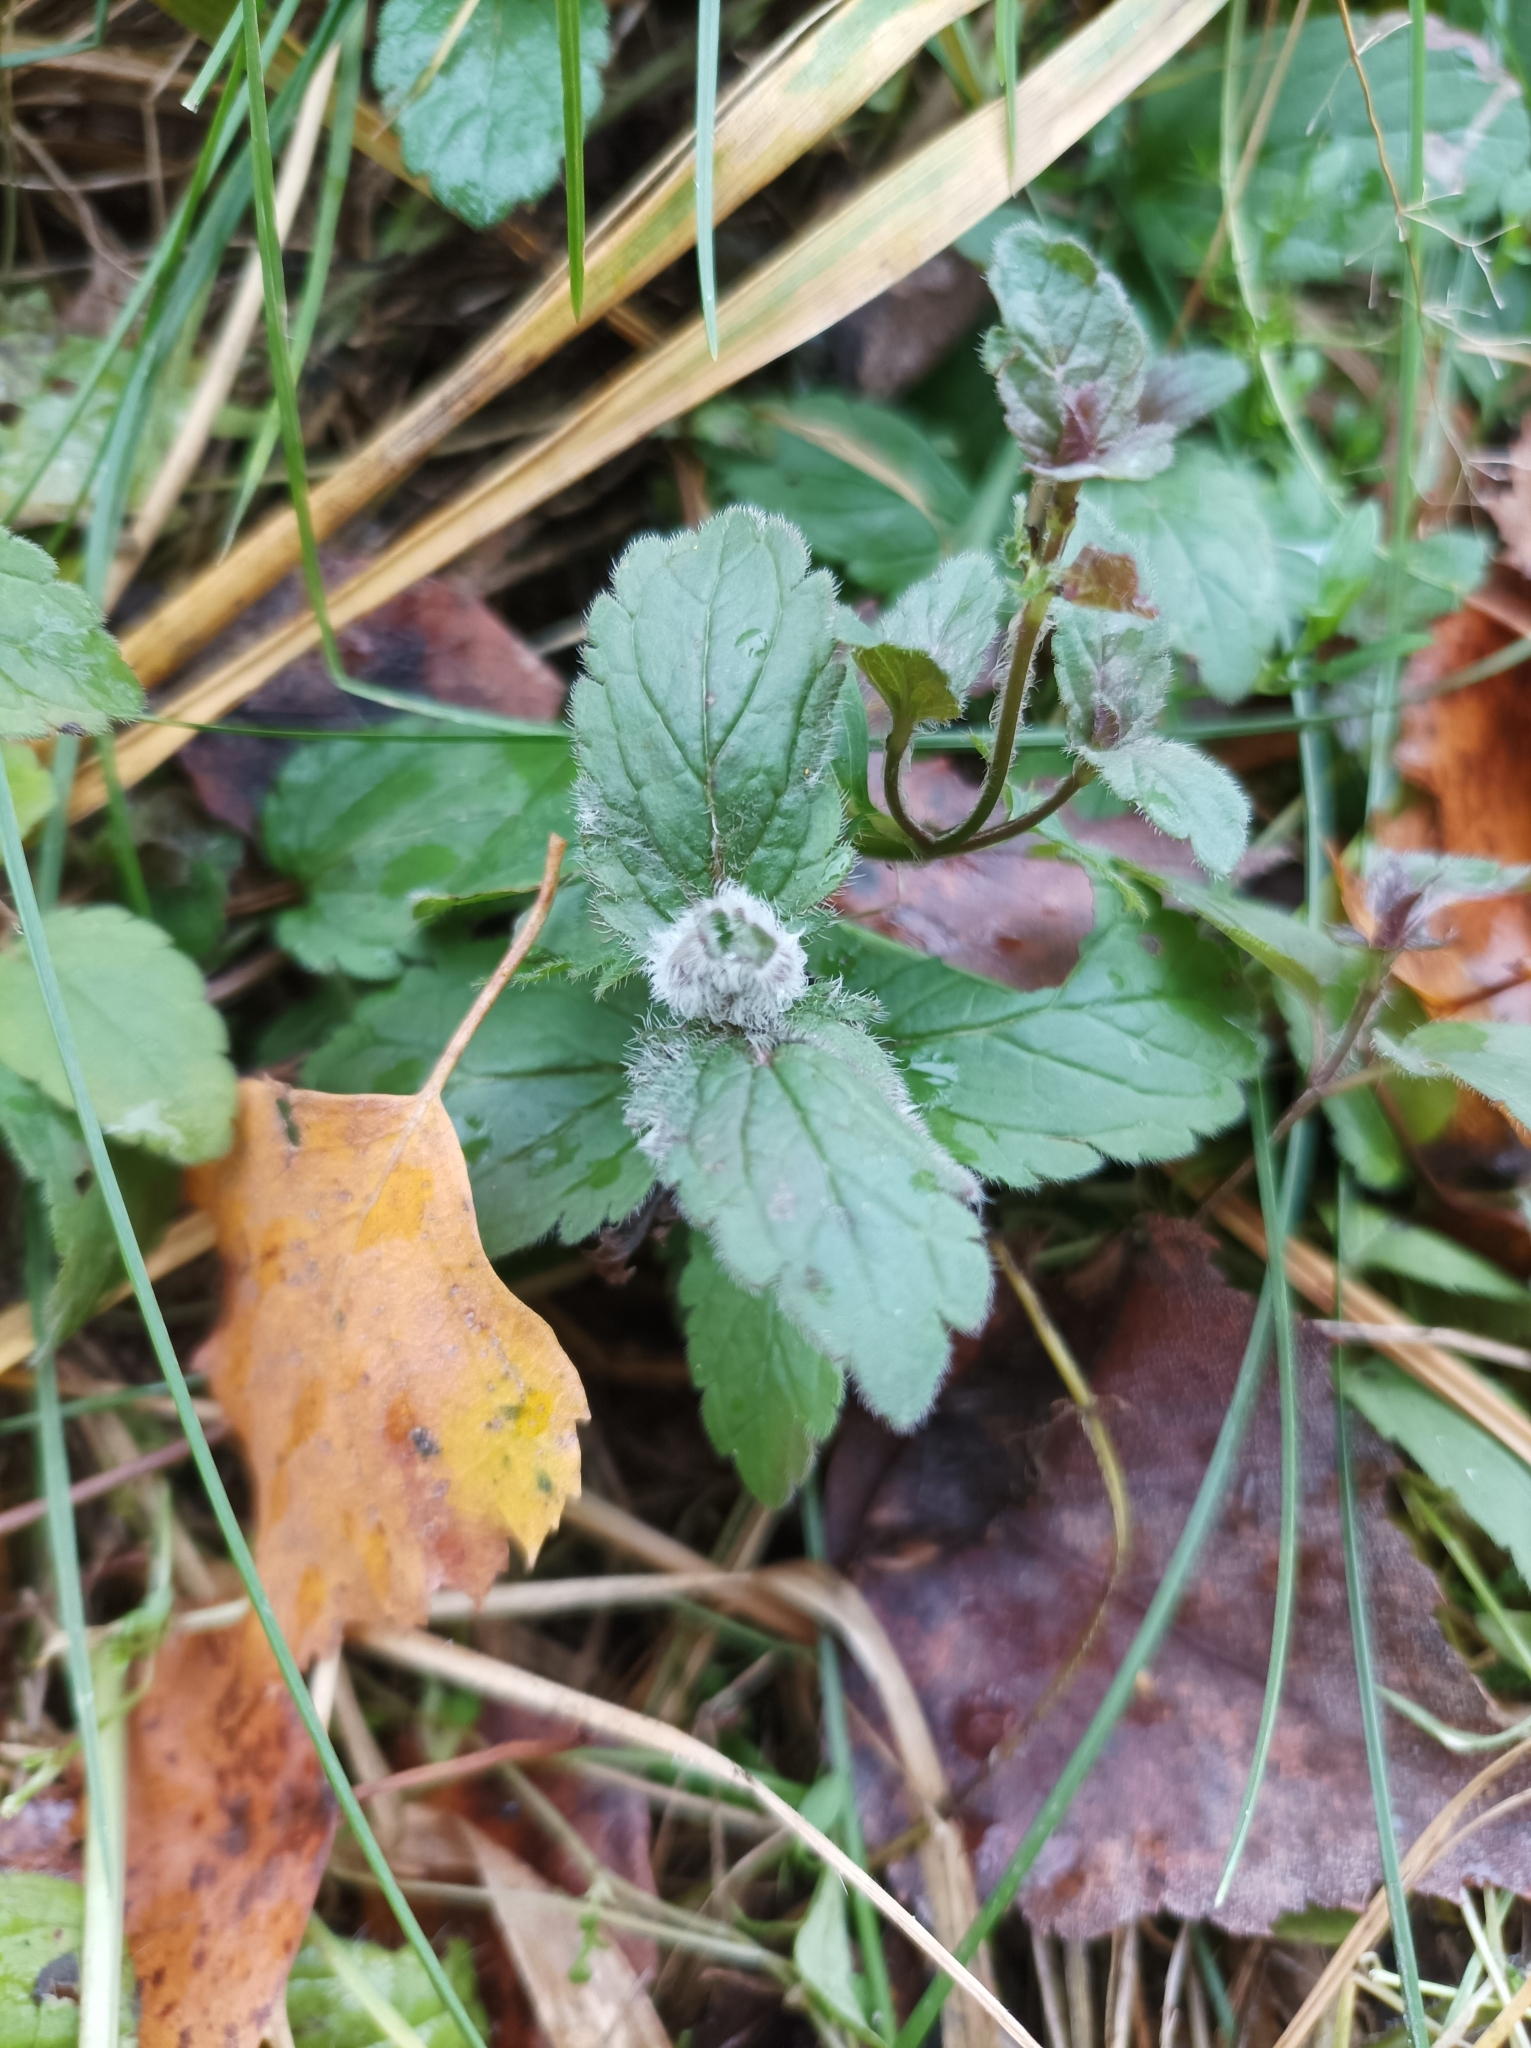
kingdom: Plantae
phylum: Tracheophyta
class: Magnoliopsida
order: Lamiales
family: Plantaginaceae
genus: Veronica
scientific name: Veronica chamaedrys
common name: Germander speedwell
